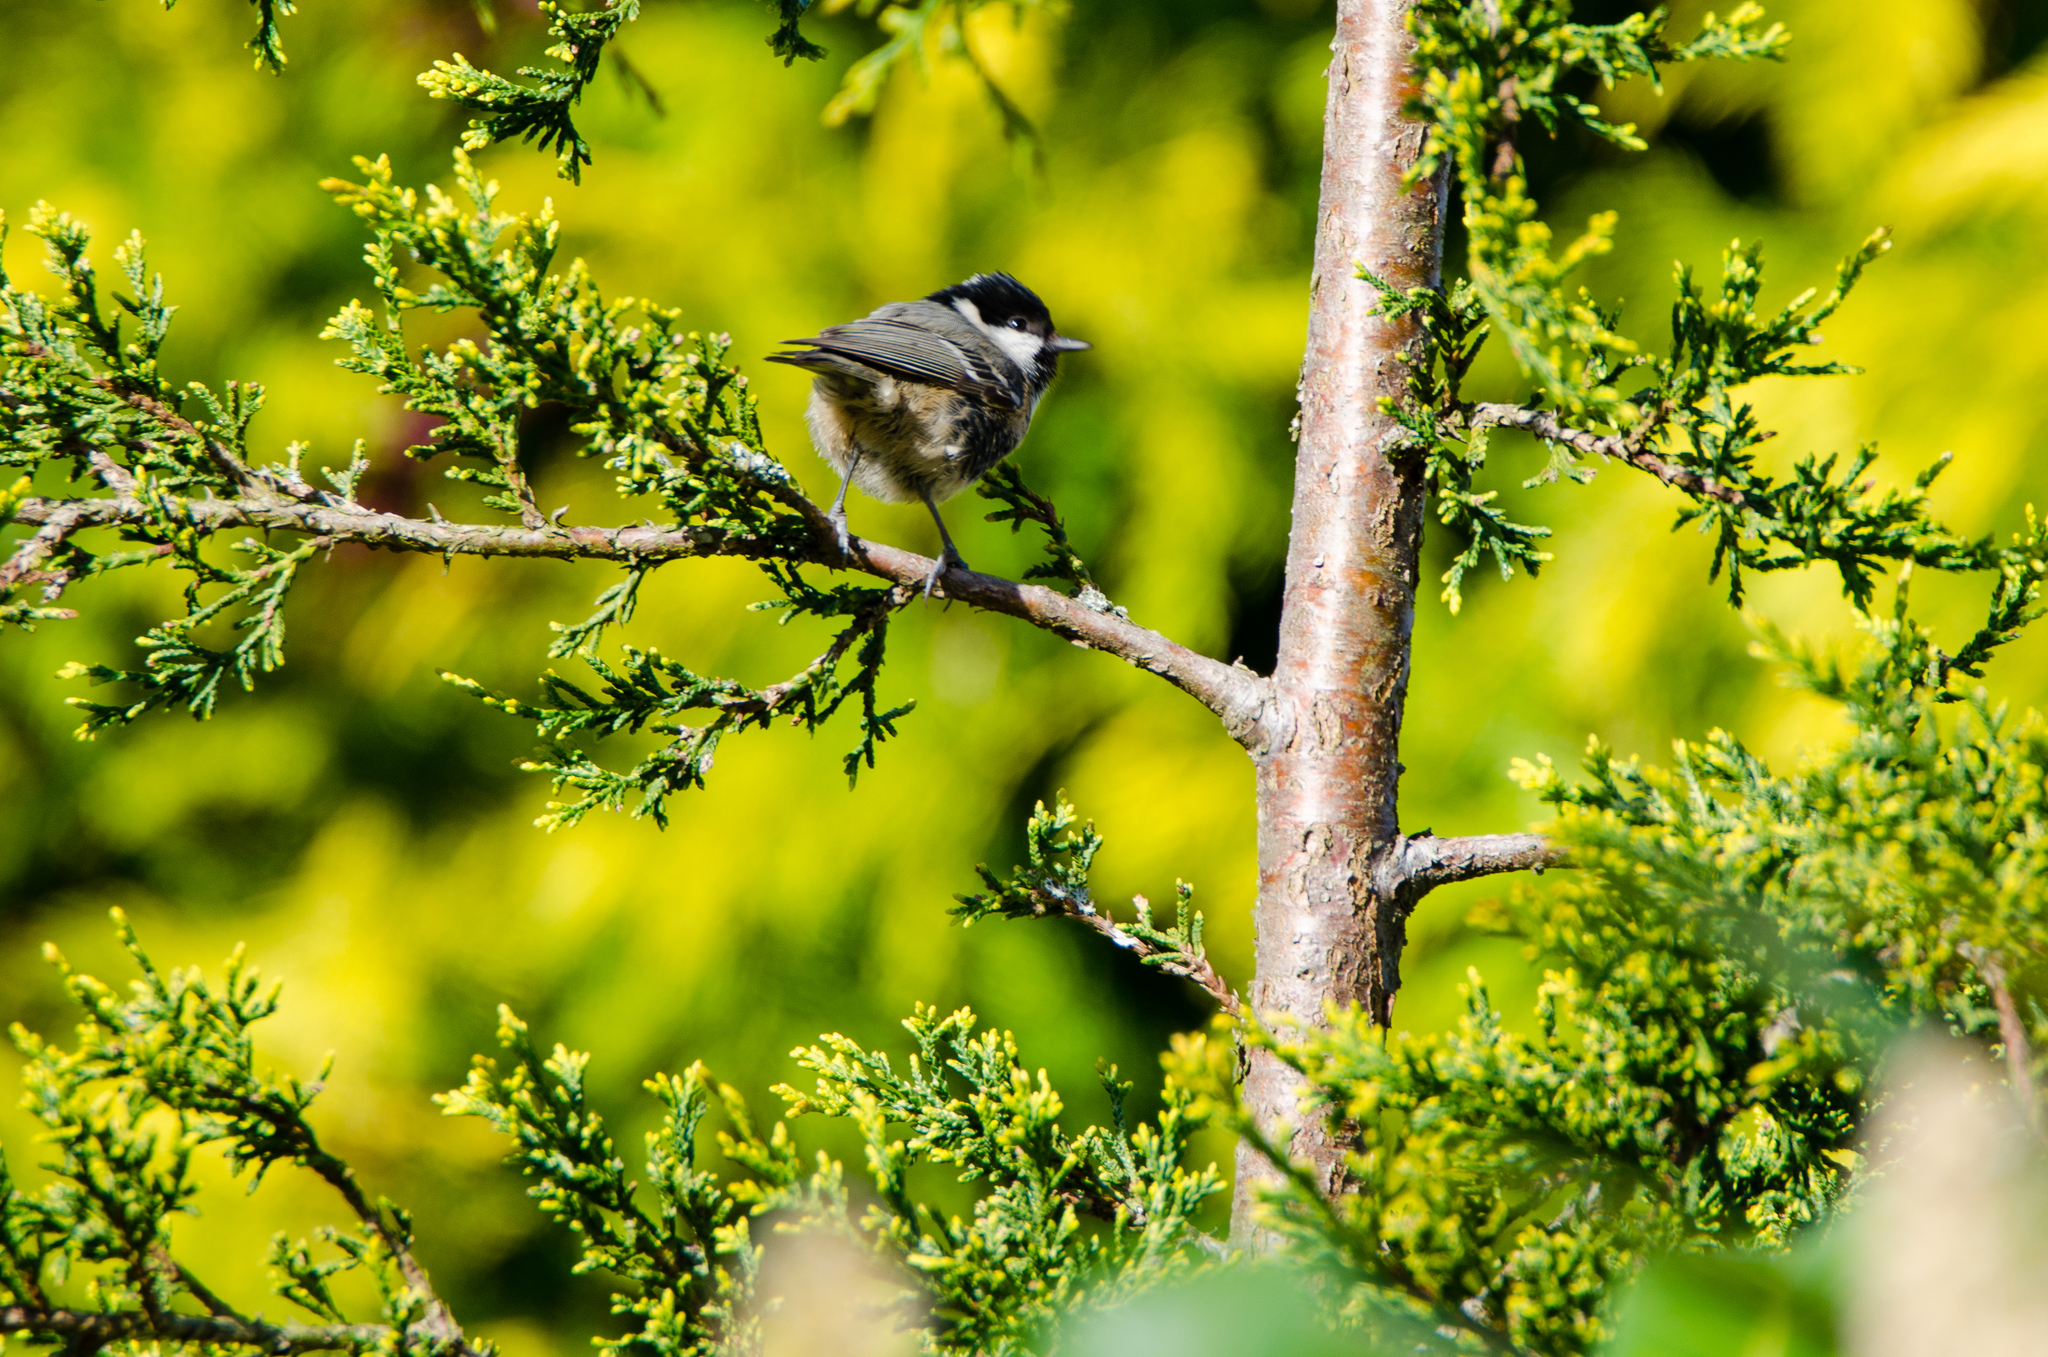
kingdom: Animalia
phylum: Chordata
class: Aves
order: Passeriformes
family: Paridae
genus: Periparus
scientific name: Periparus ater
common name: Coal tit
